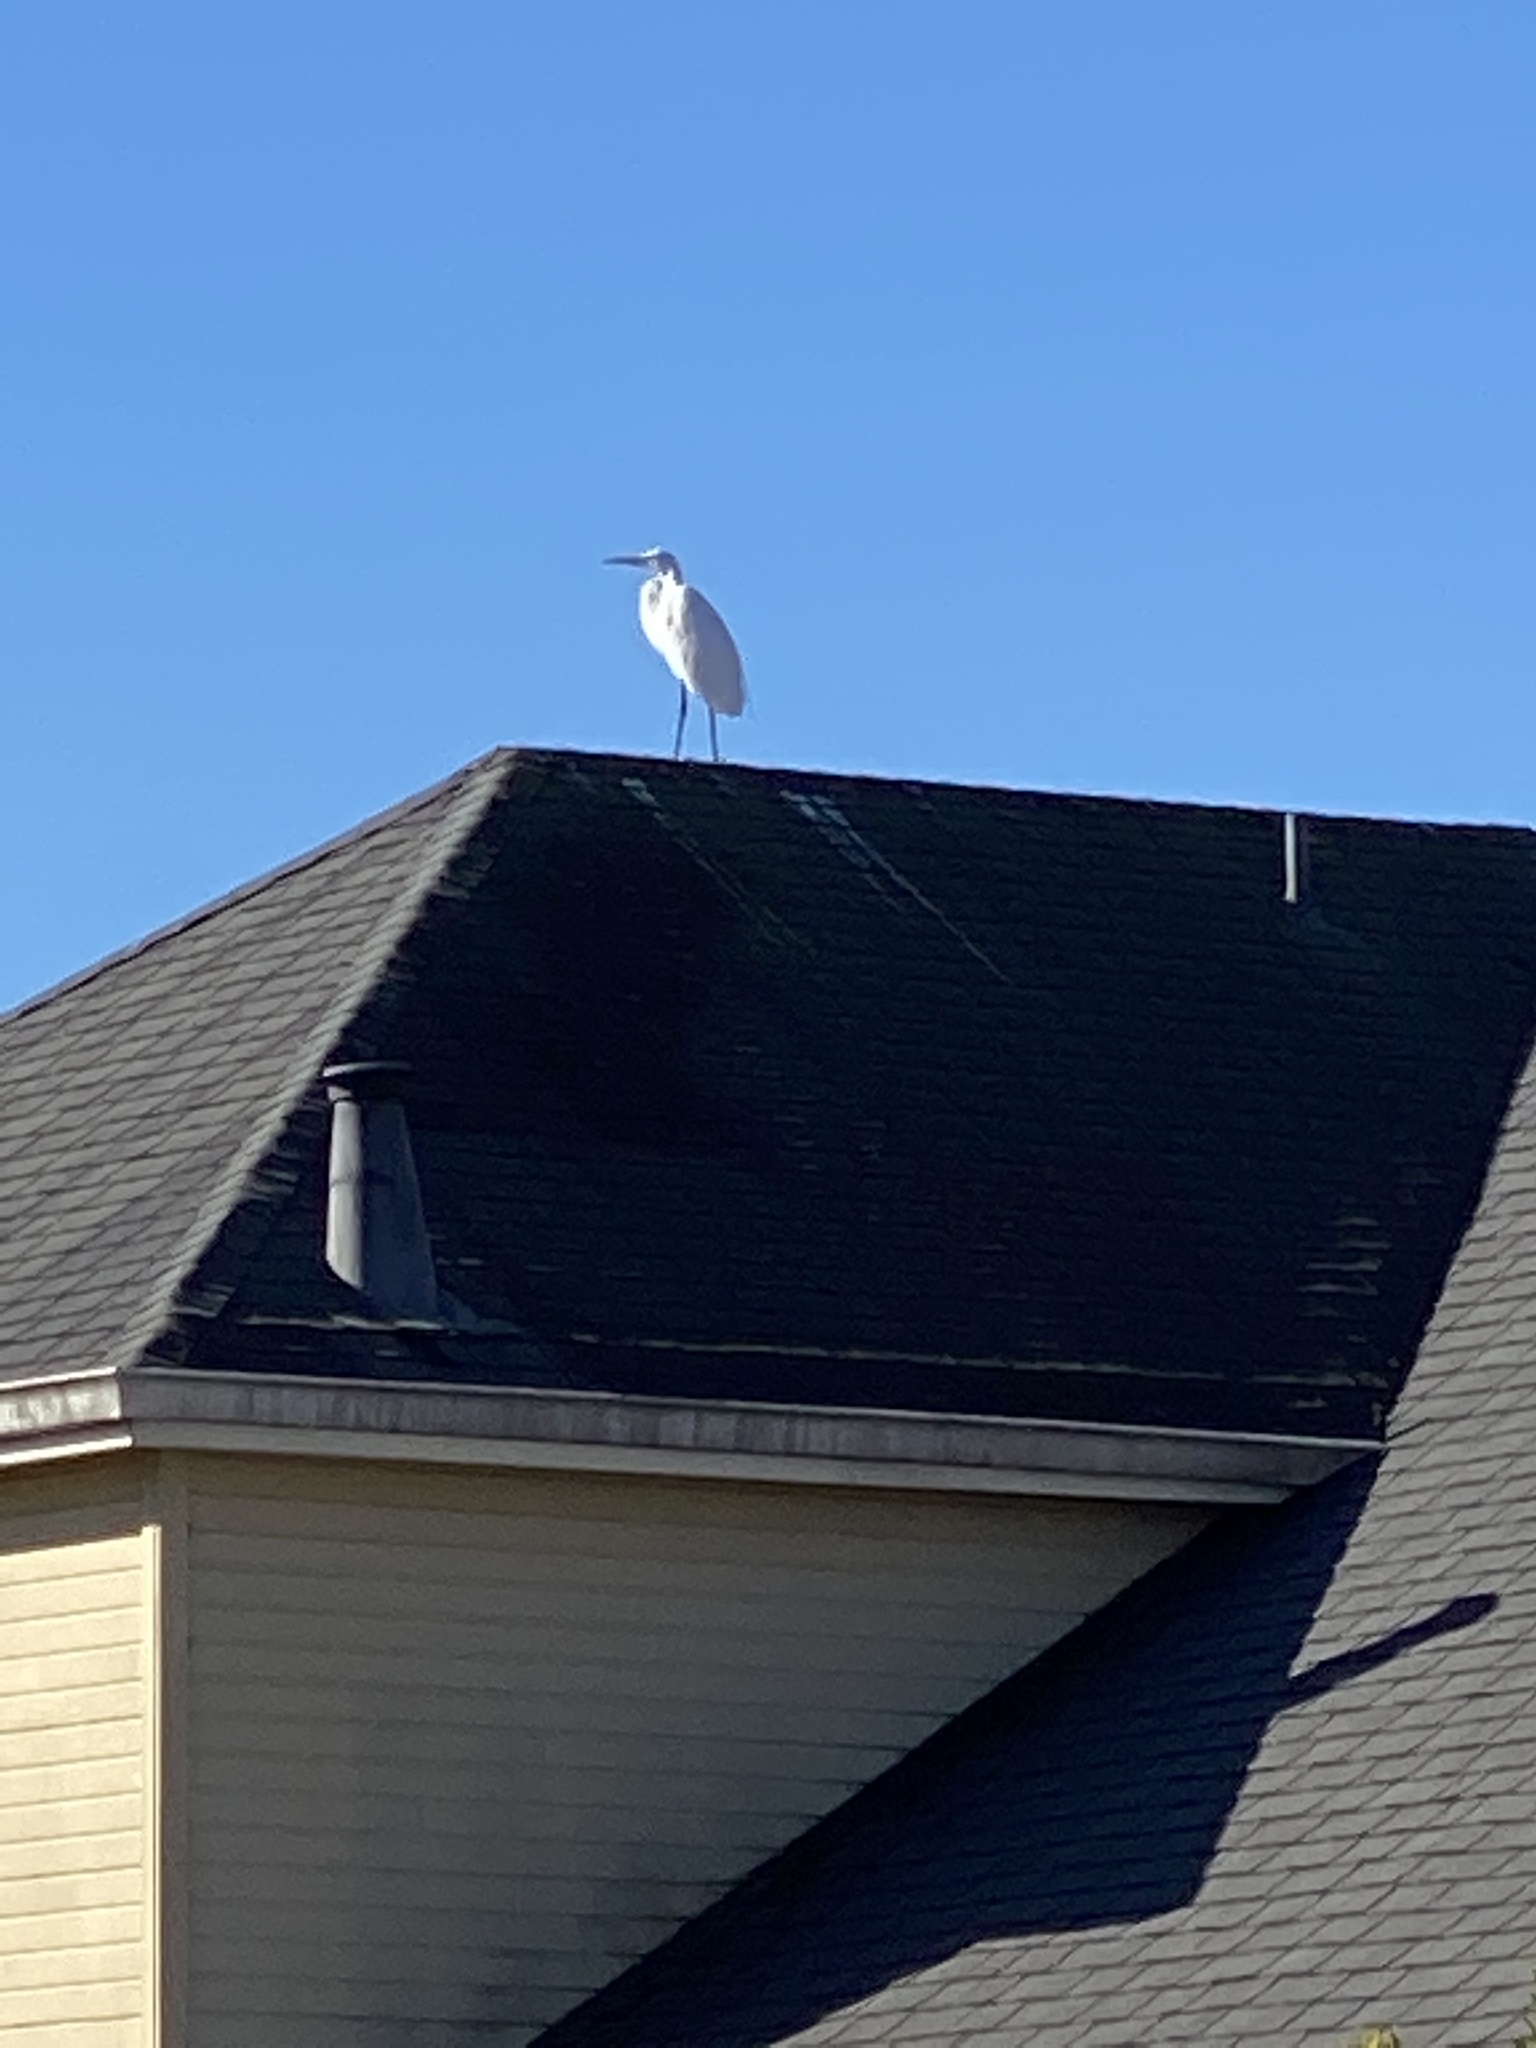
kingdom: Animalia
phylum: Chordata
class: Aves
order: Pelecaniformes
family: Ardeidae
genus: Egretta
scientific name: Egretta thula
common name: Snowy egret
